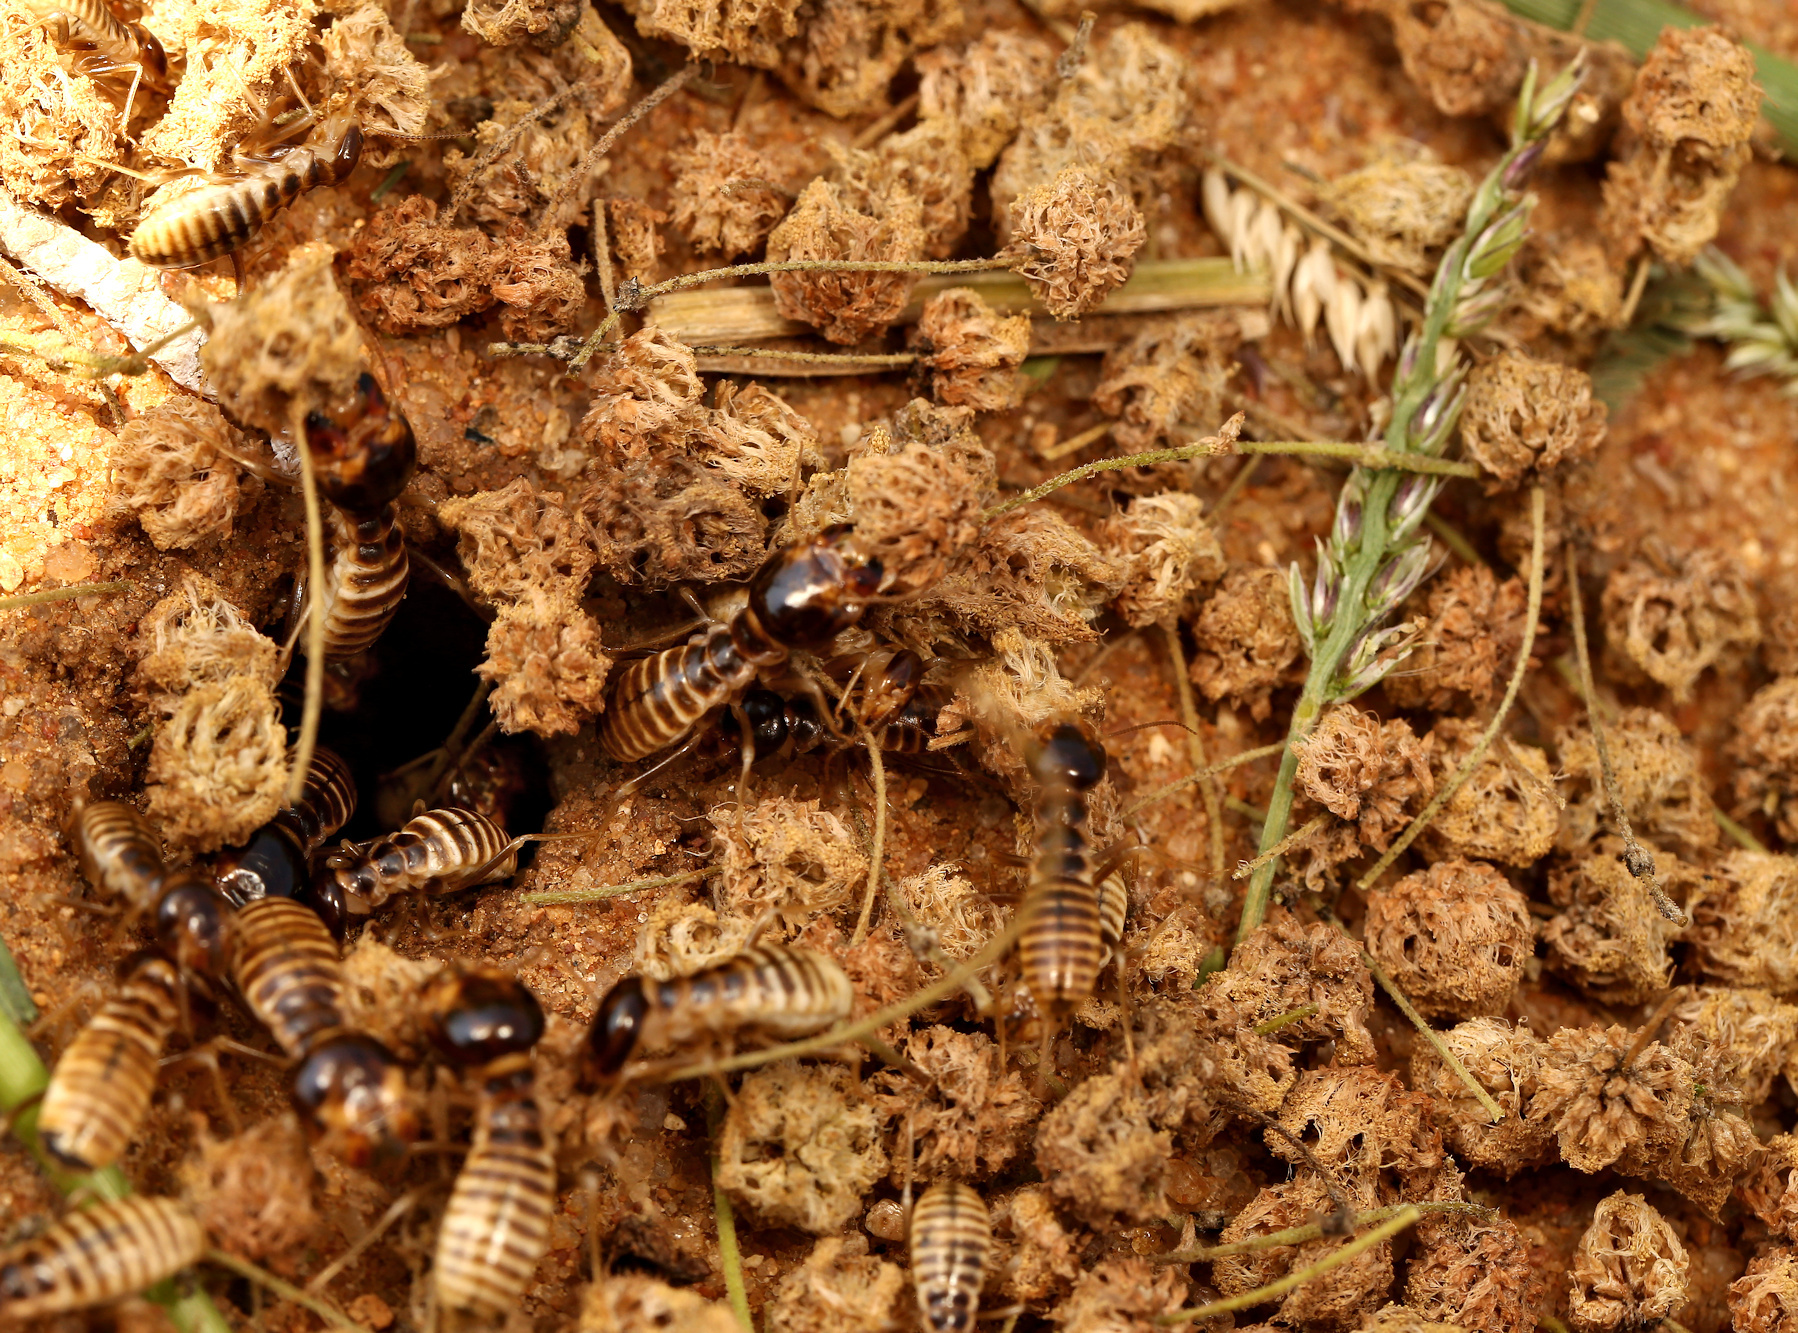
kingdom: Animalia
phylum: Arthropoda
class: Insecta
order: Blattodea
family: Hodotermitidae
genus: Hodotermes
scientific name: Hodotermes mossambicus
